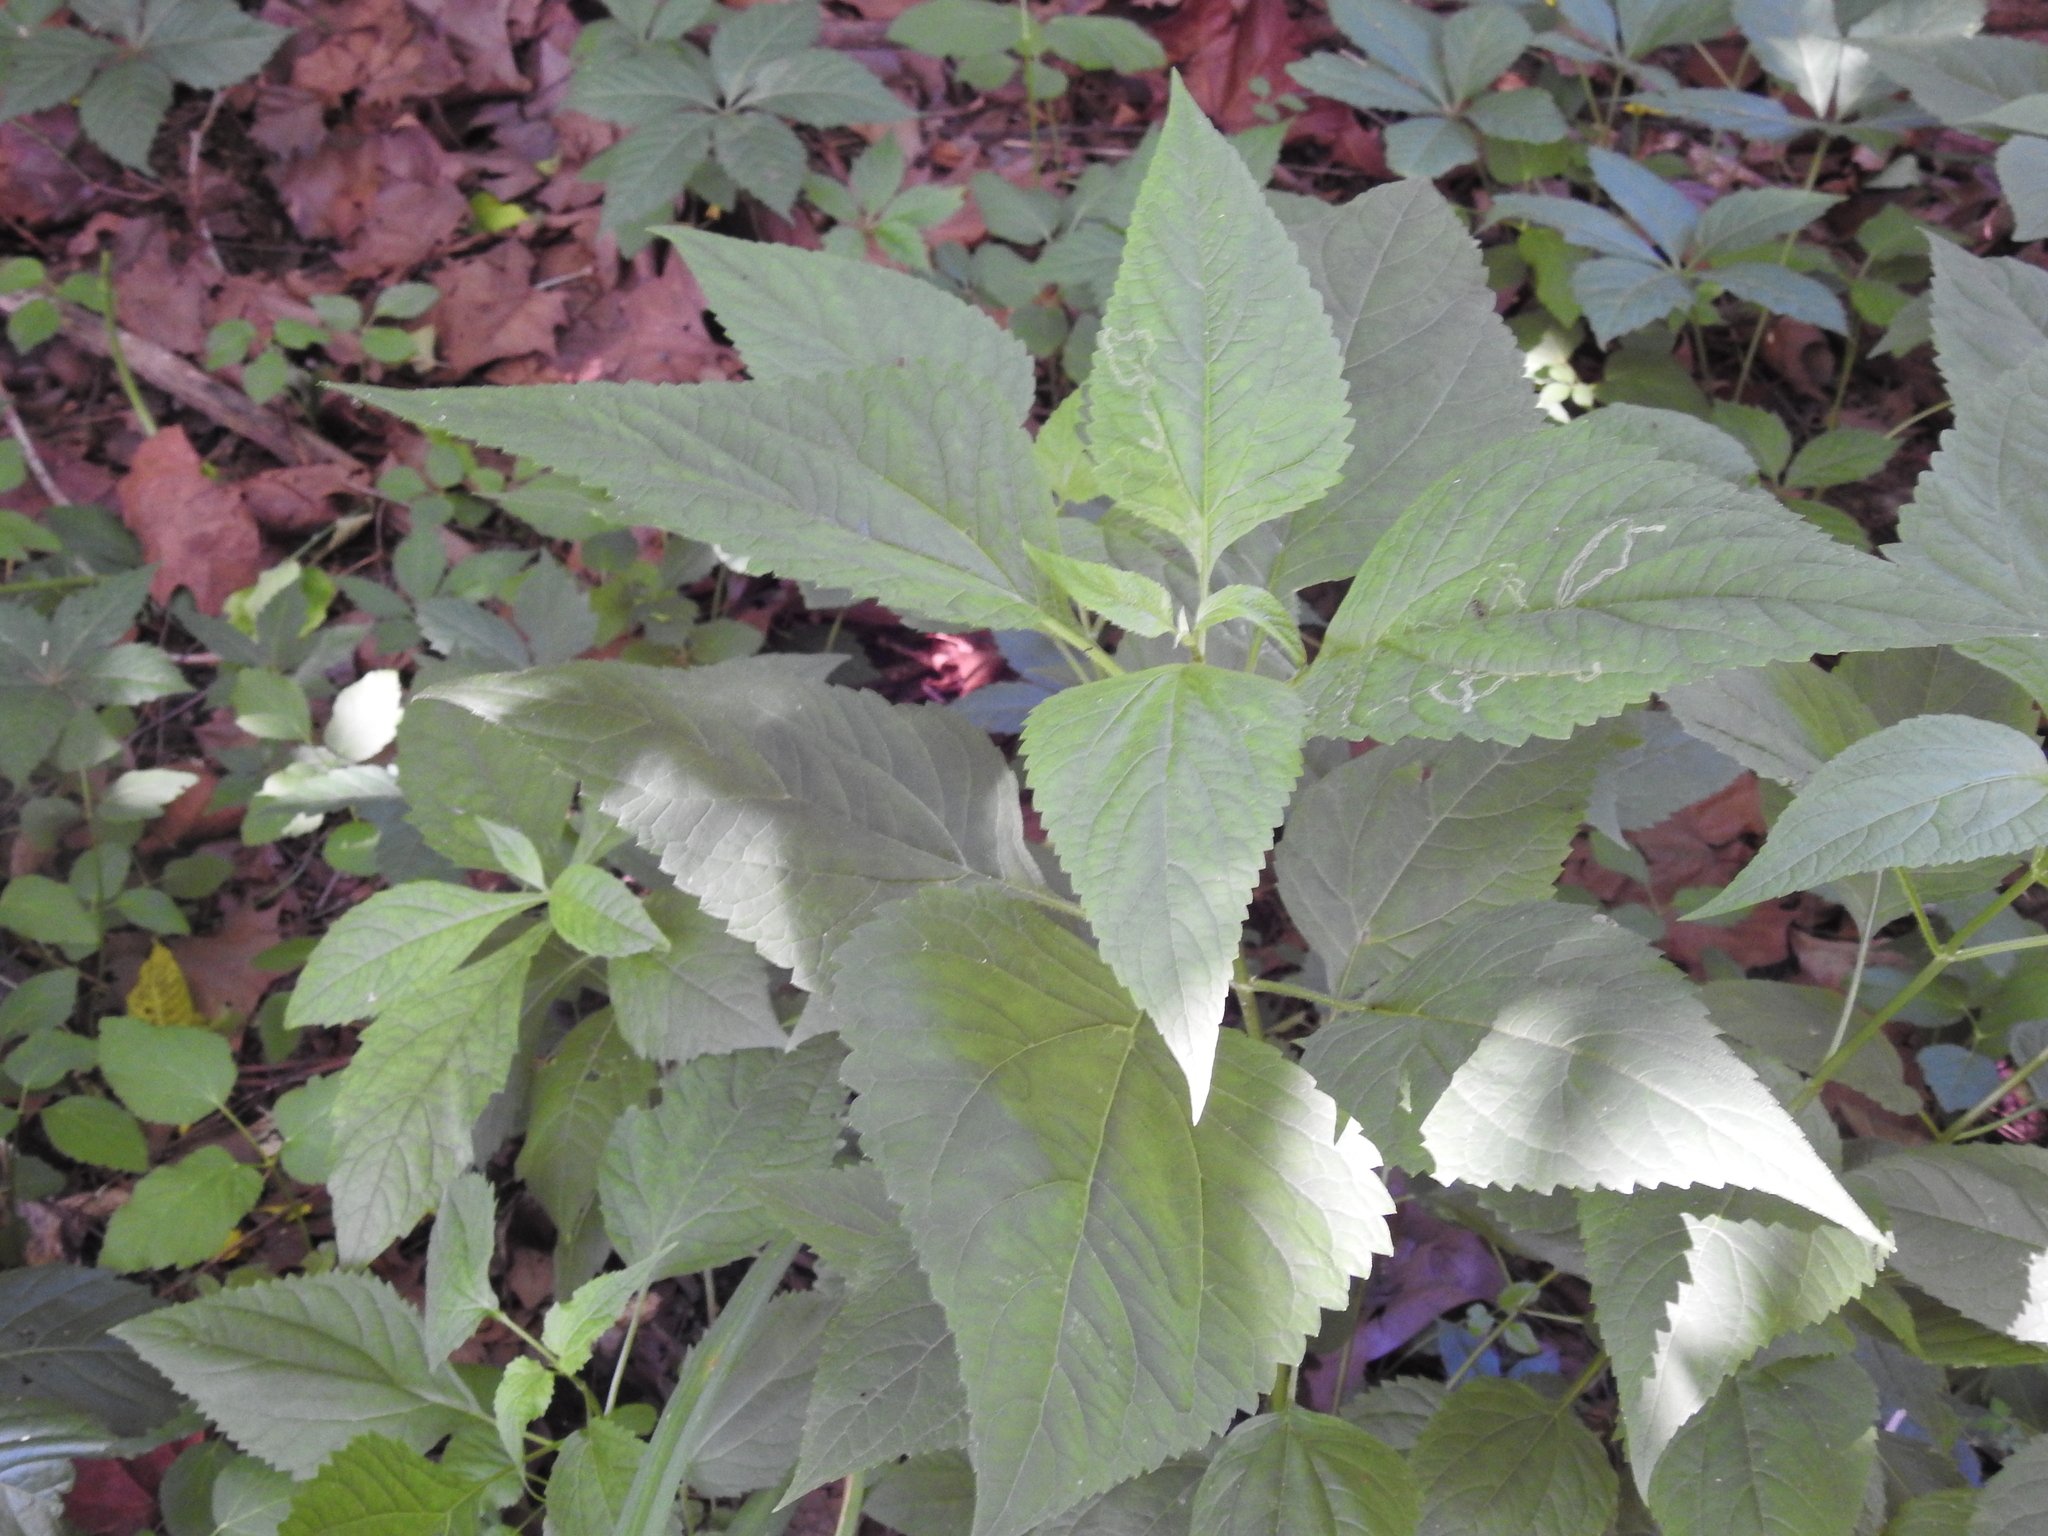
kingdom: Plantae
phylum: Tracheophyta
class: Magnoliopsida
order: Asterales
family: Asteraceae
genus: Ageratina
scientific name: Ageratina altissima
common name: White snakeroot
